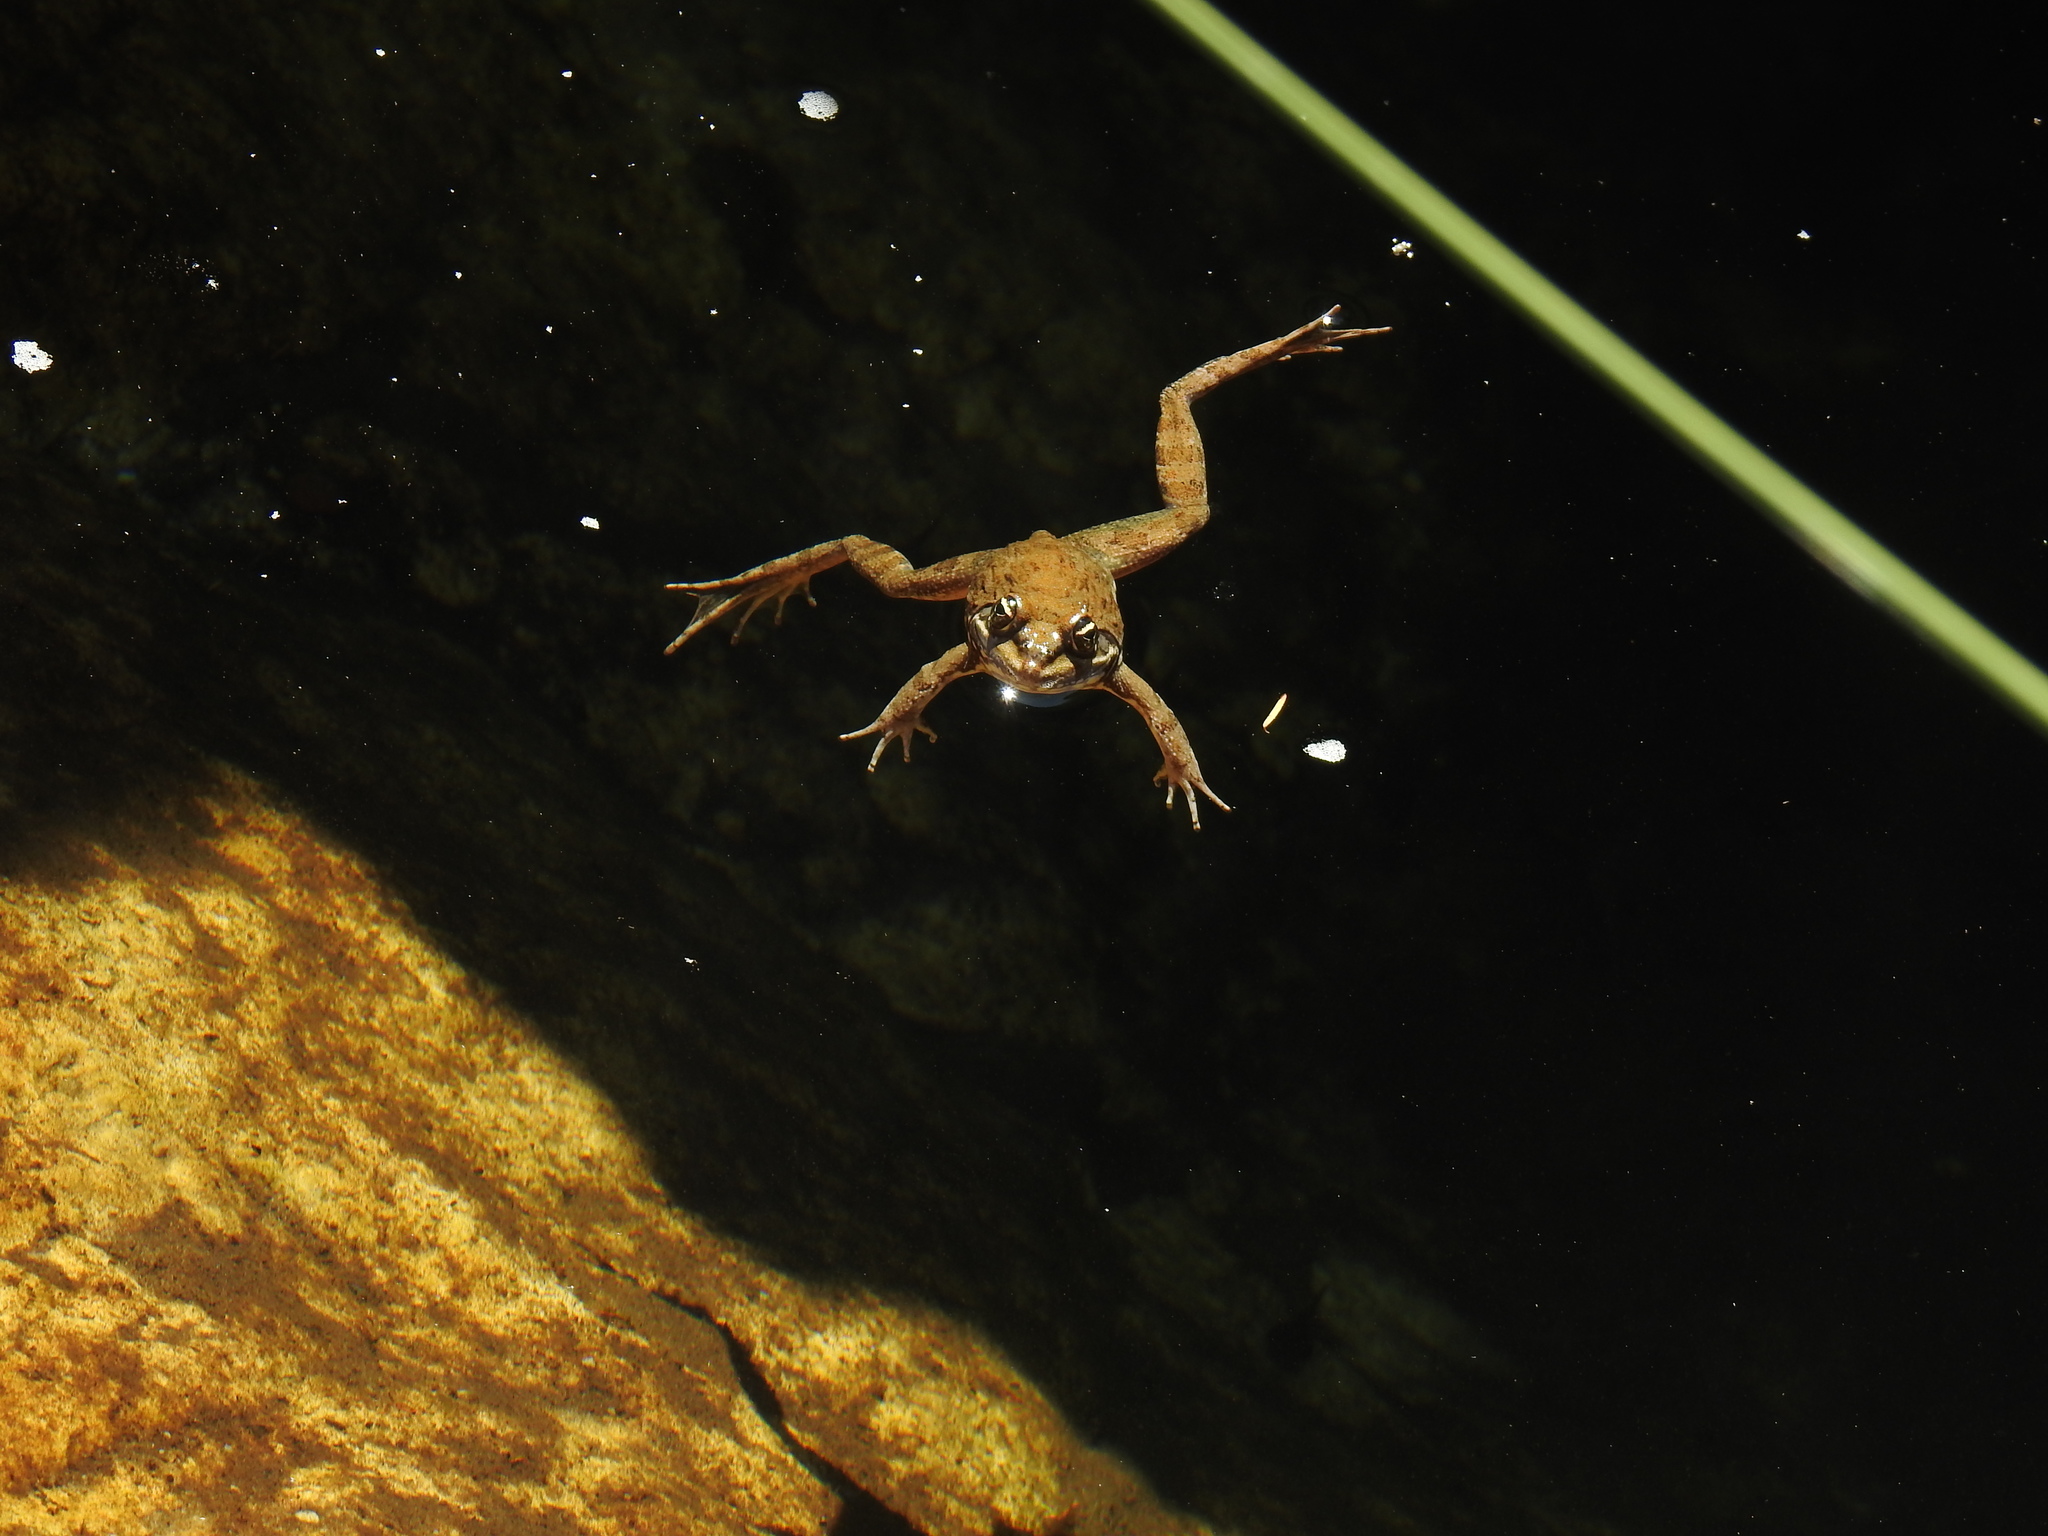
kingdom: Animalia
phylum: Chordata
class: Amphibia
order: Anura
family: Pyxicephalidae
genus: Amietia
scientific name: Amietia fuscigula
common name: Cape rana
